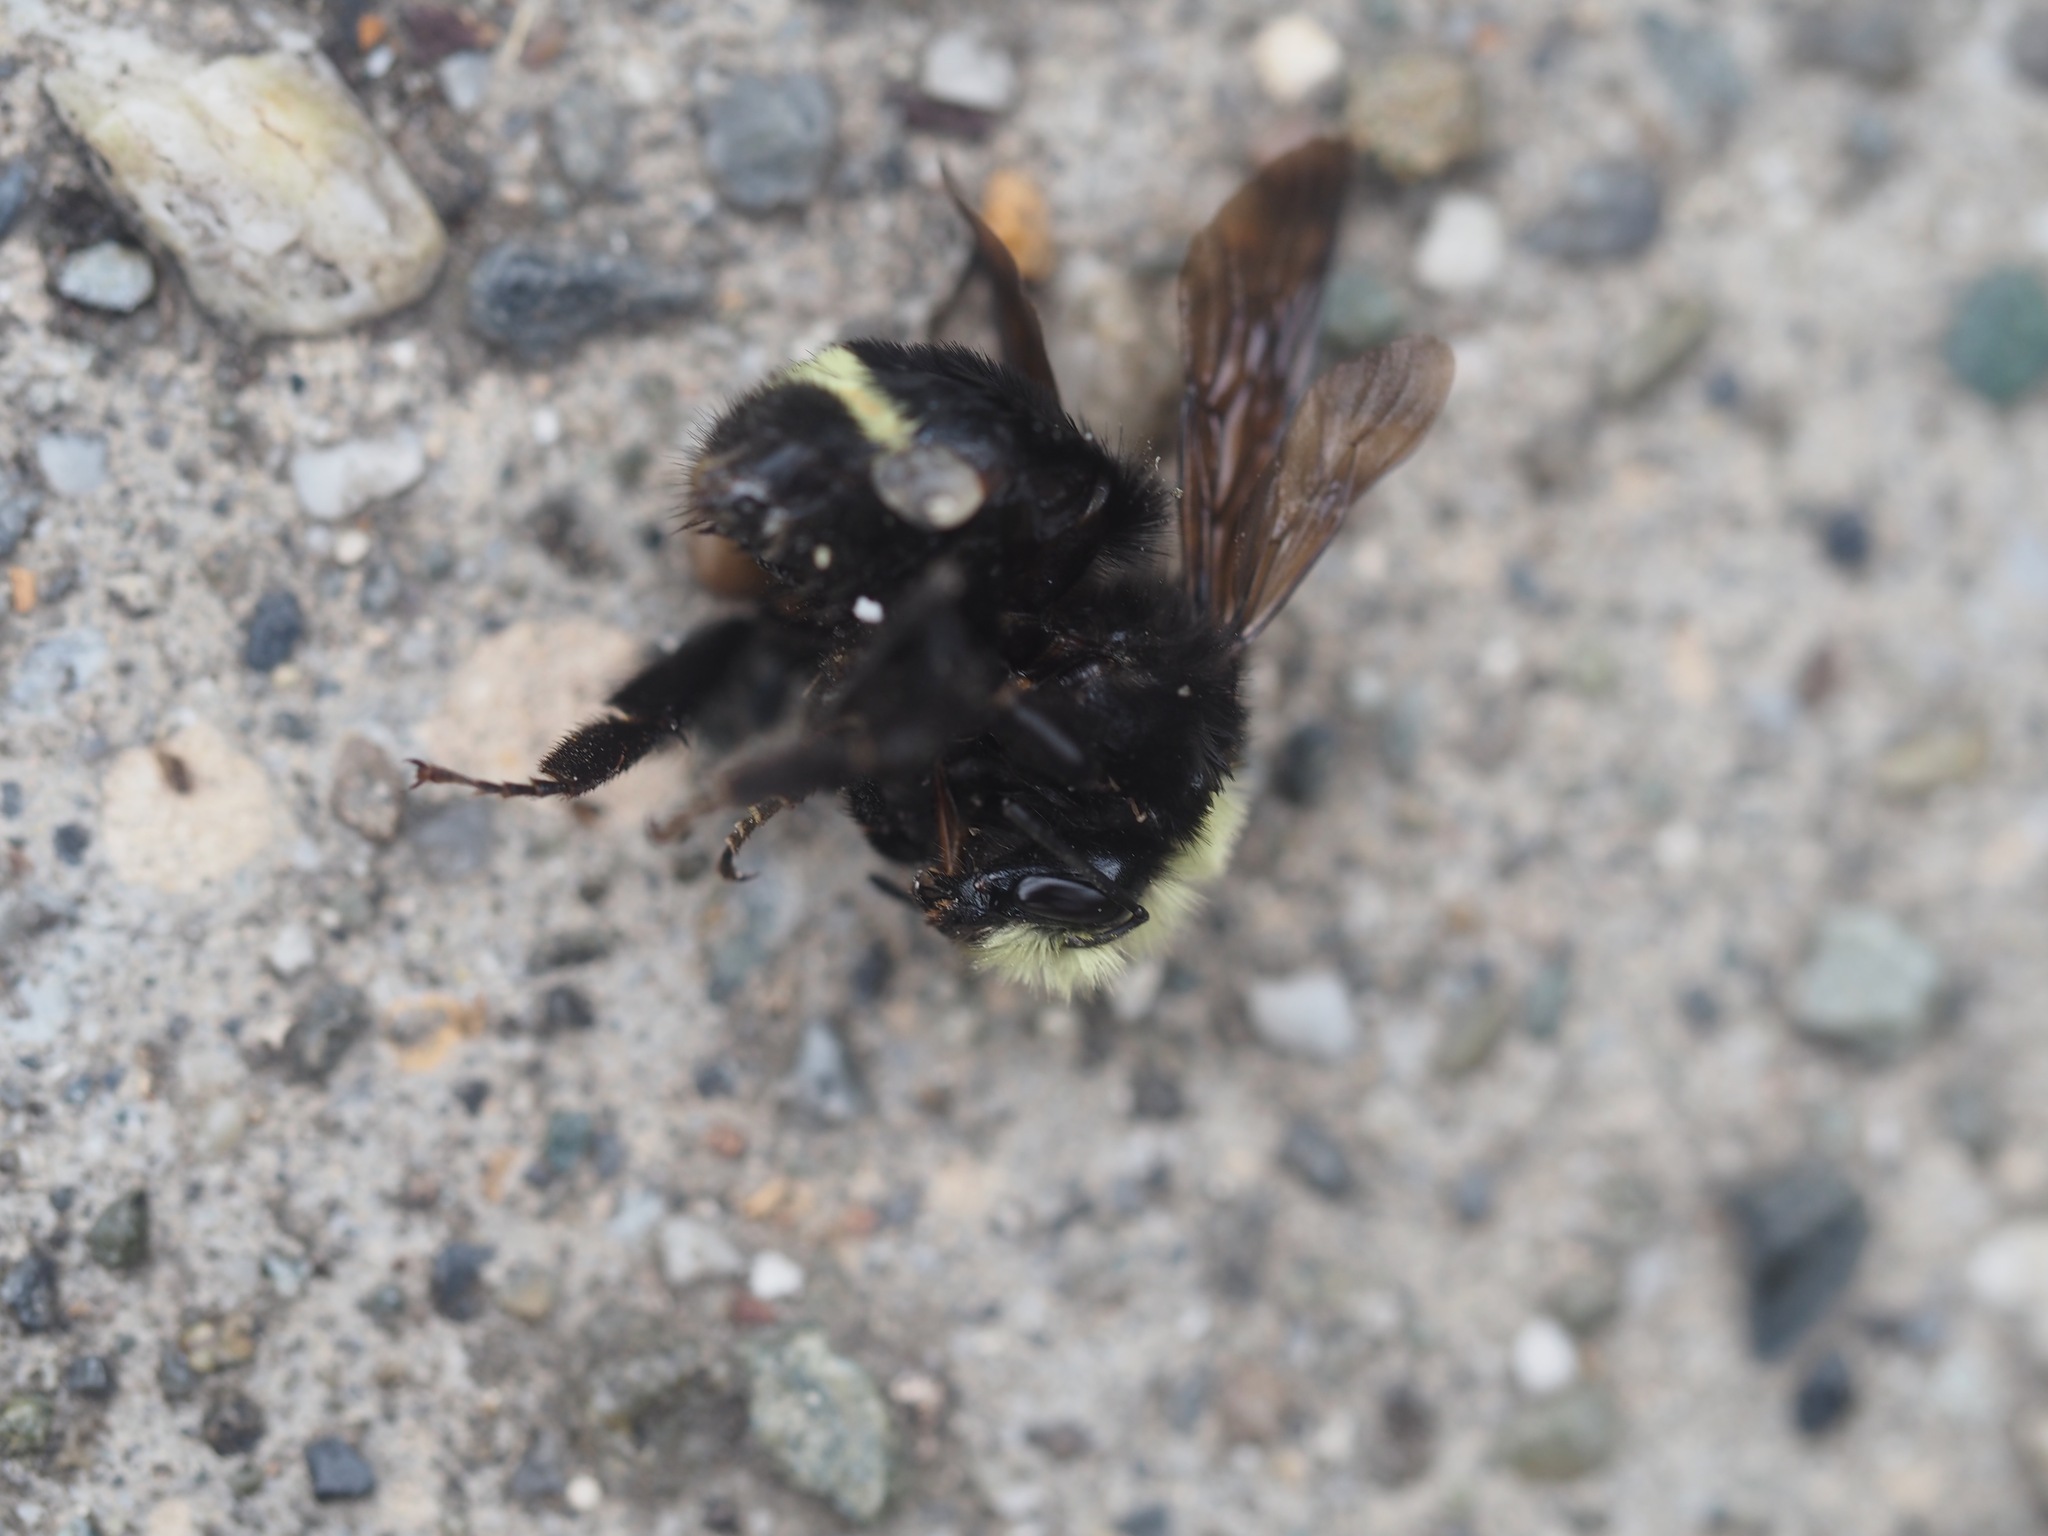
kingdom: Animalia
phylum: Arthropoda
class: Insecta
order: Hymenoptera
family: Apidae
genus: Bombus
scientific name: Bombus vosnesenskii
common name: Vosnesensky bumble bee
